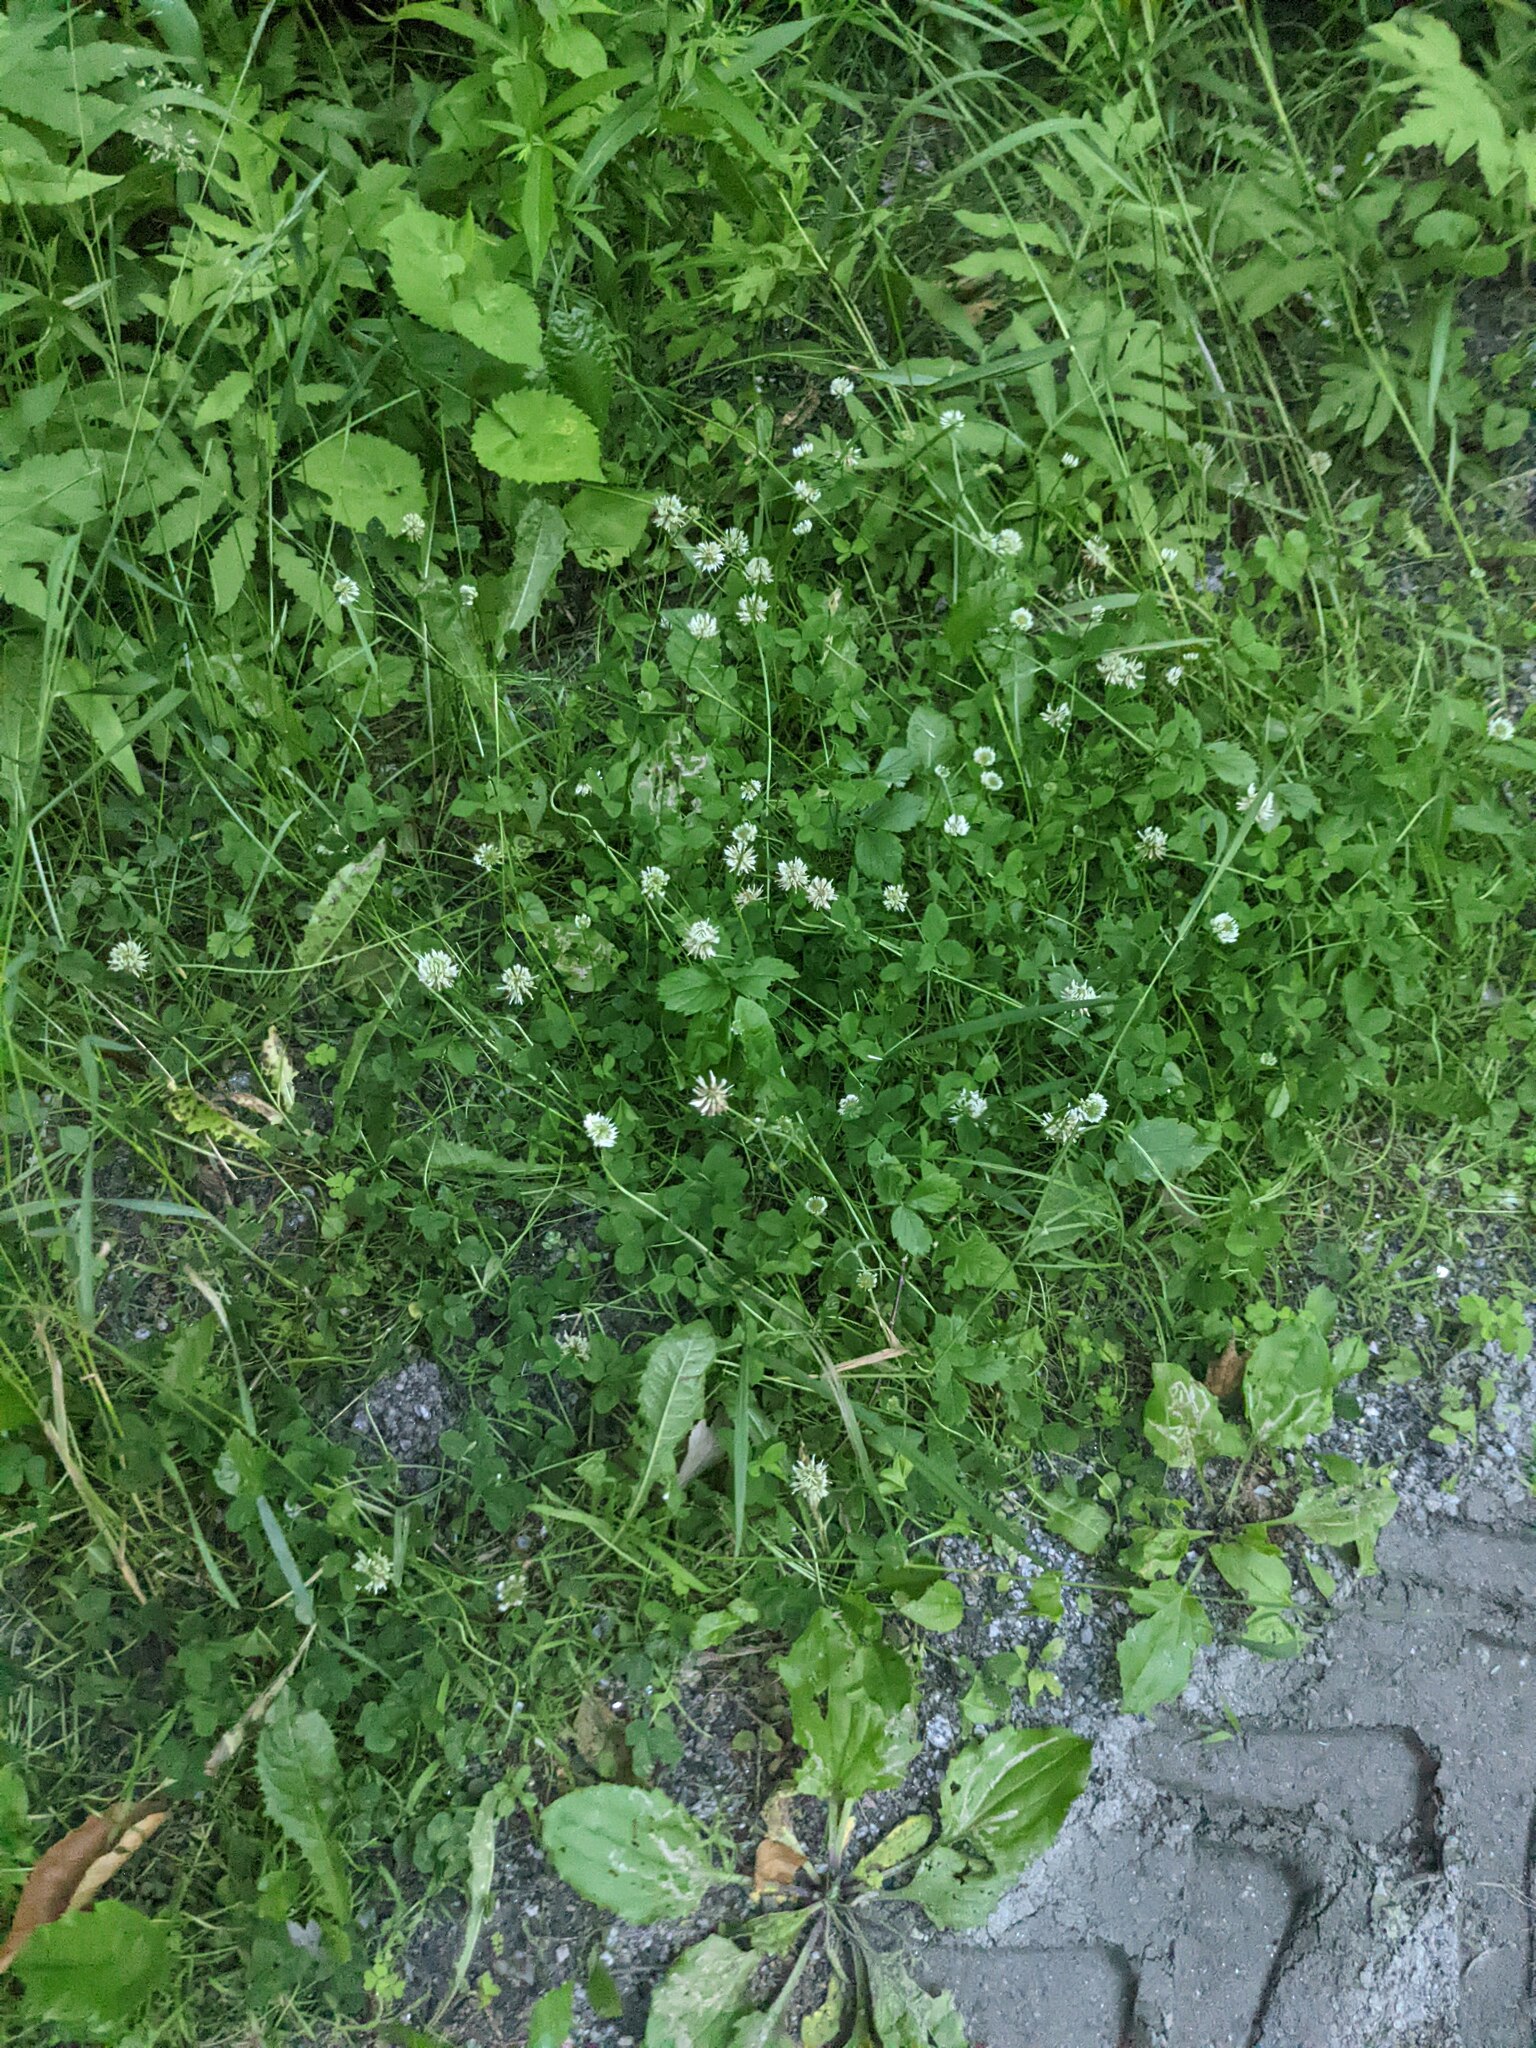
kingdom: Plantae
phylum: Tracheophyta
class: Magnoliopsida
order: Fabales
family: Fabaceae
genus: Trifolium
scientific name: Trifolium repens
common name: White clover
